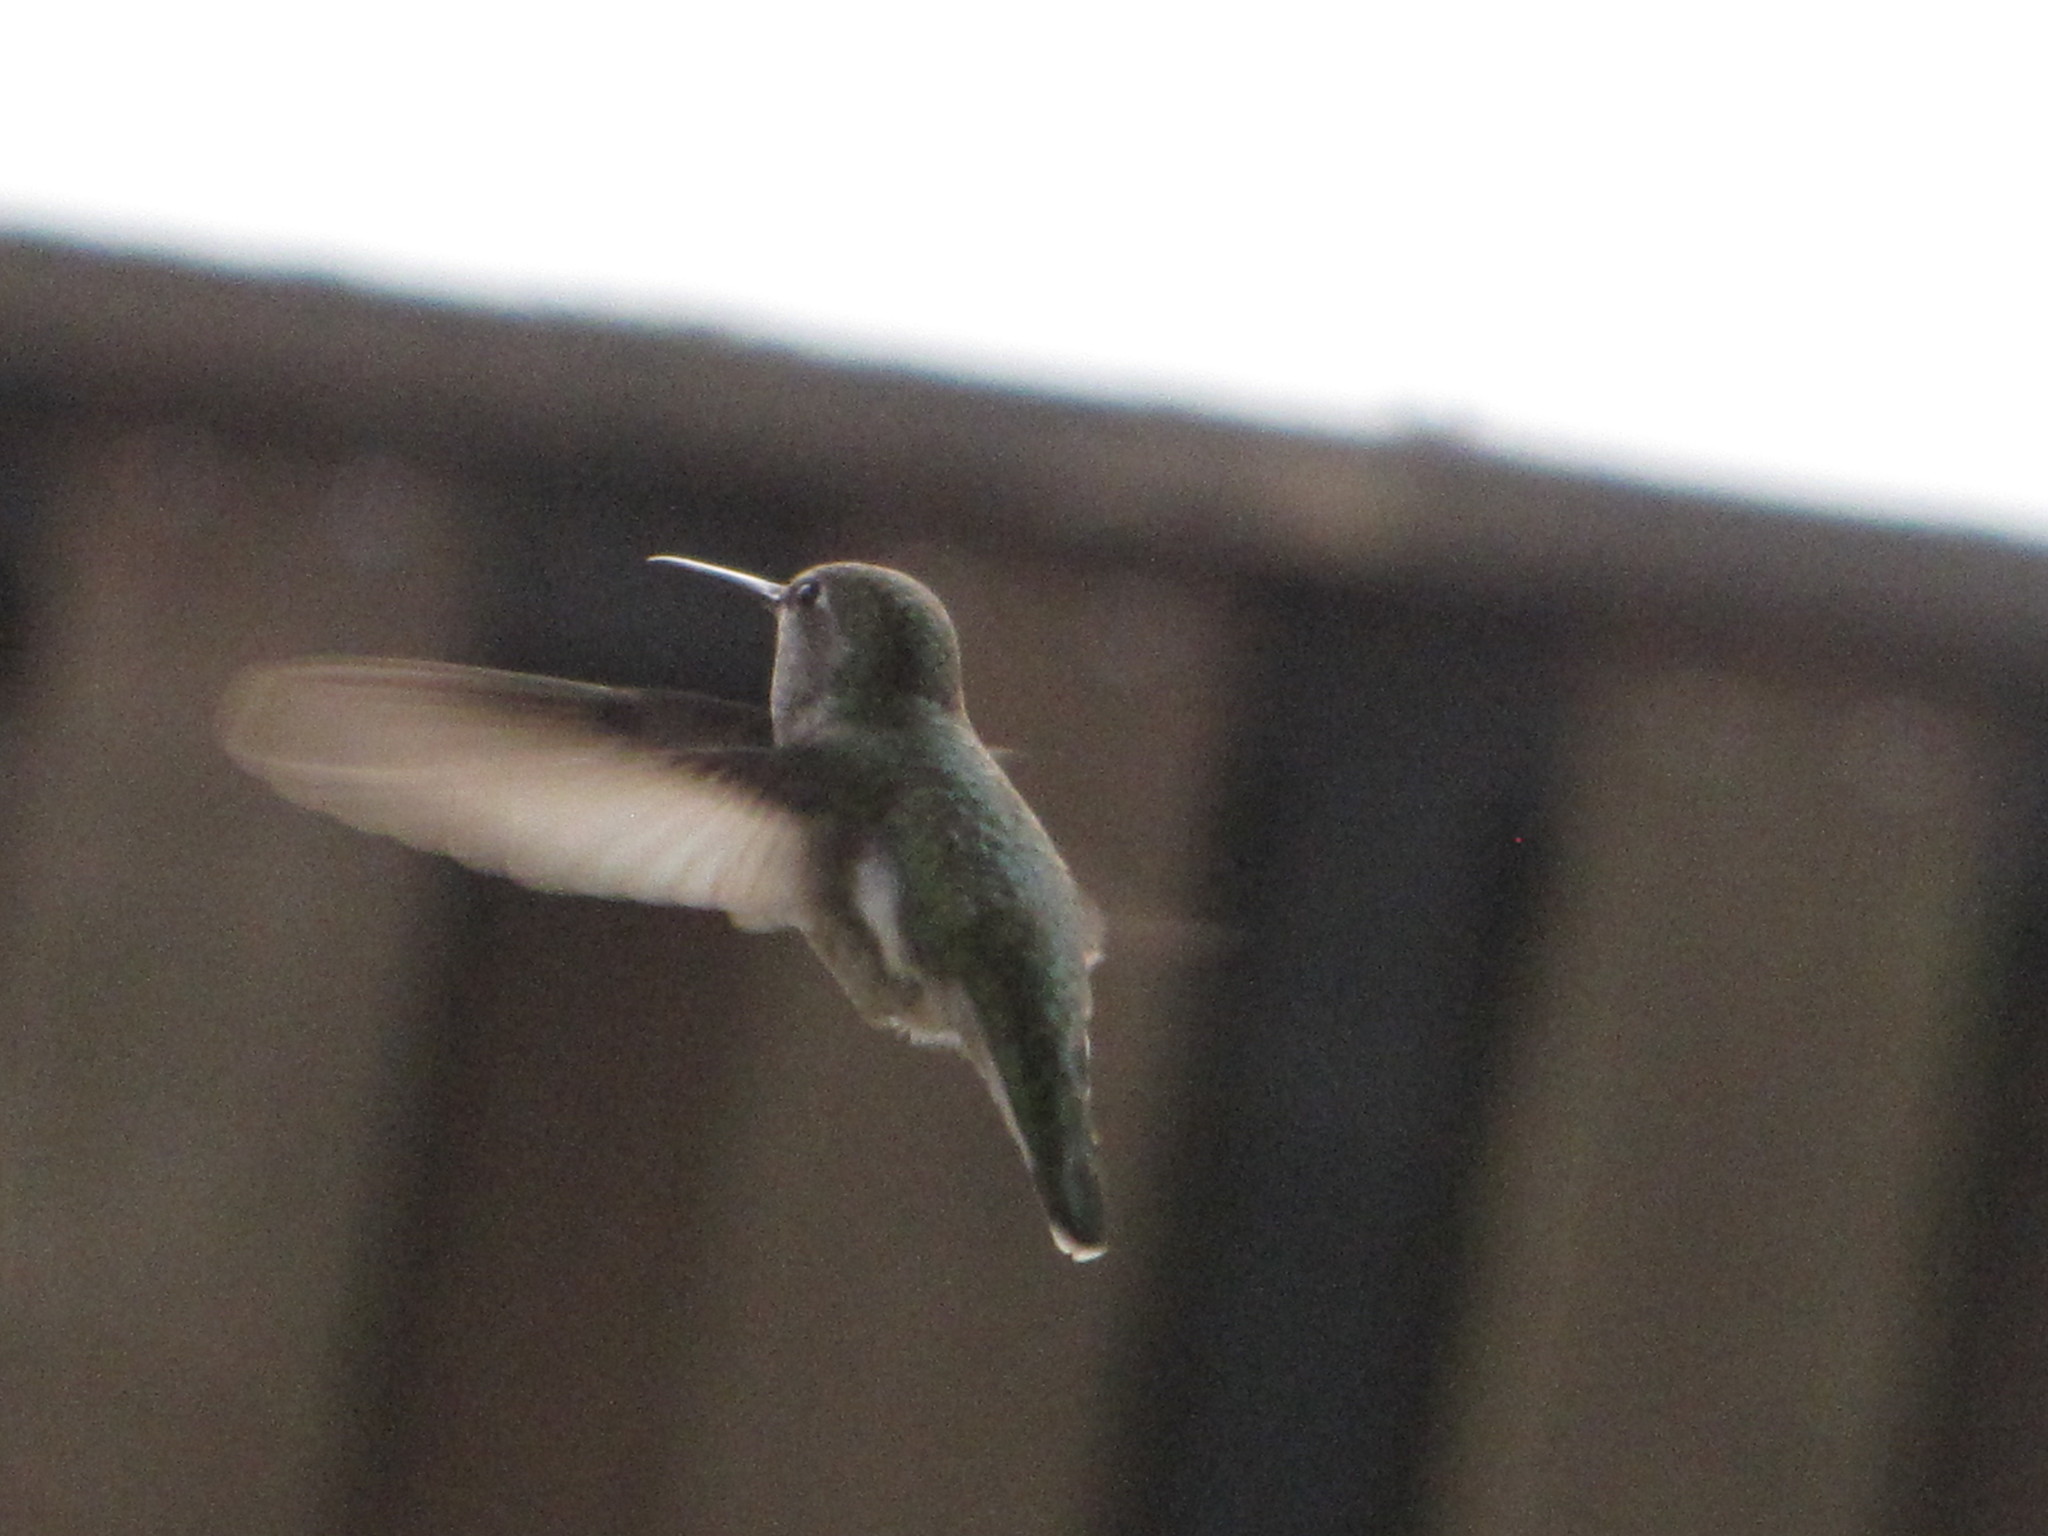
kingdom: Animalia
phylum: Chordata
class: Aves
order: Apodiformes
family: Trochilidae
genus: Calypte
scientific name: Calypte anna
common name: Anna's hummingbird
